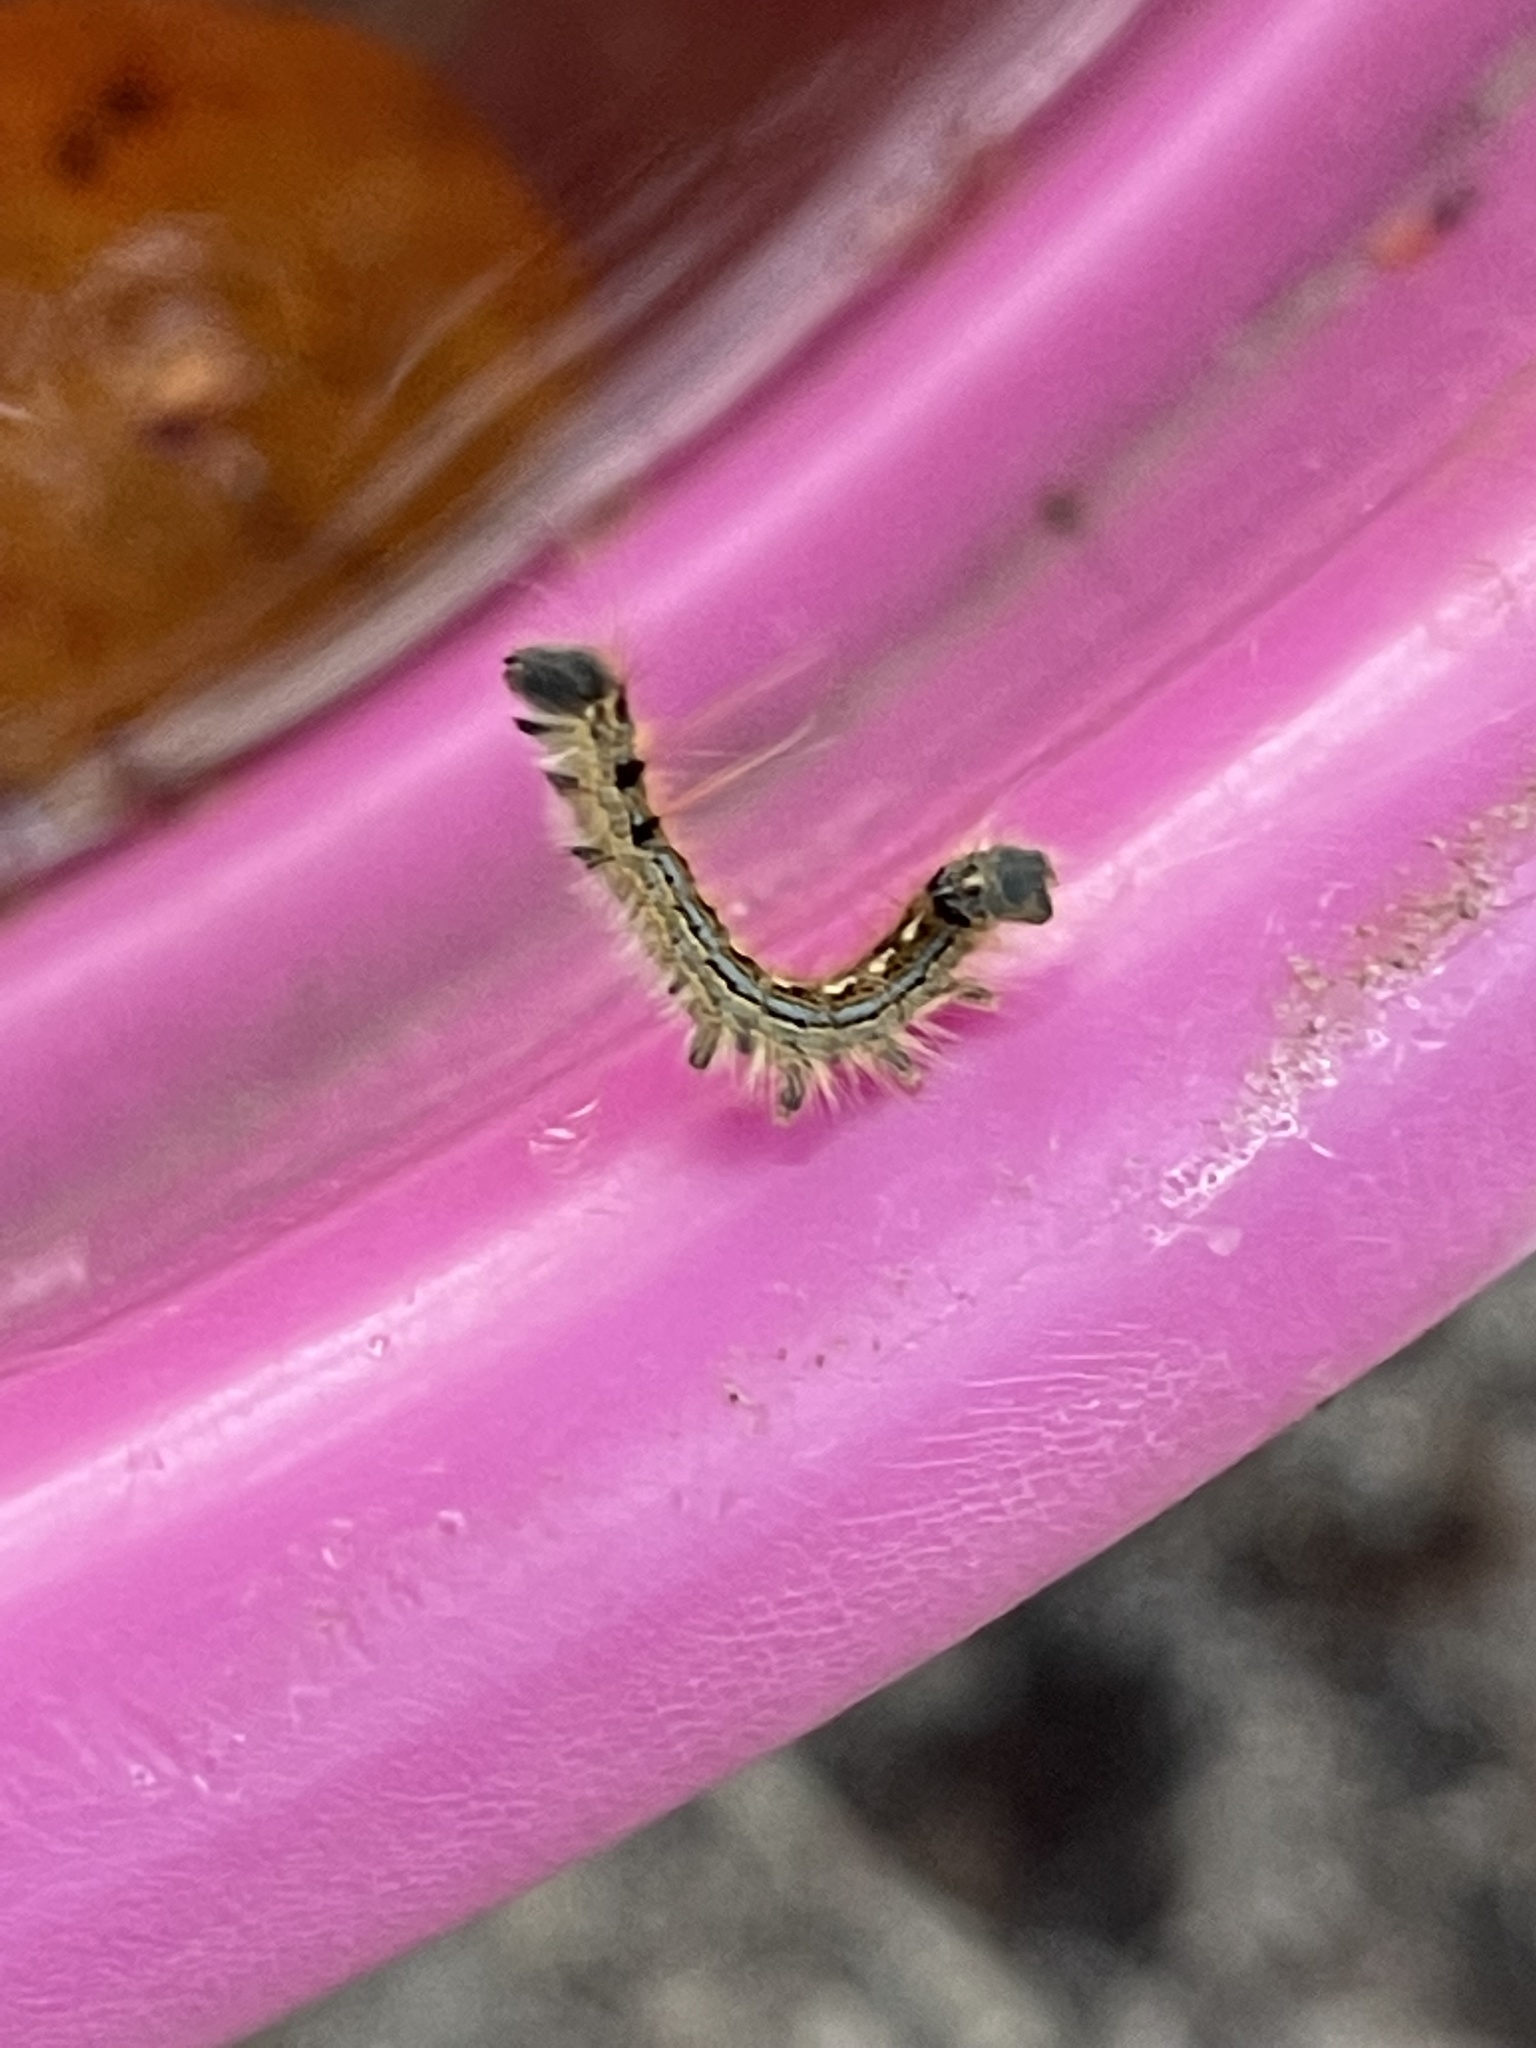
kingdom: Animalia
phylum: Arthropoda
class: Insecta
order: Lepidoptera
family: Lasiocampidae
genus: Malacosoma
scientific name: Malacosoma disstria
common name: Forest tent caterpillar
